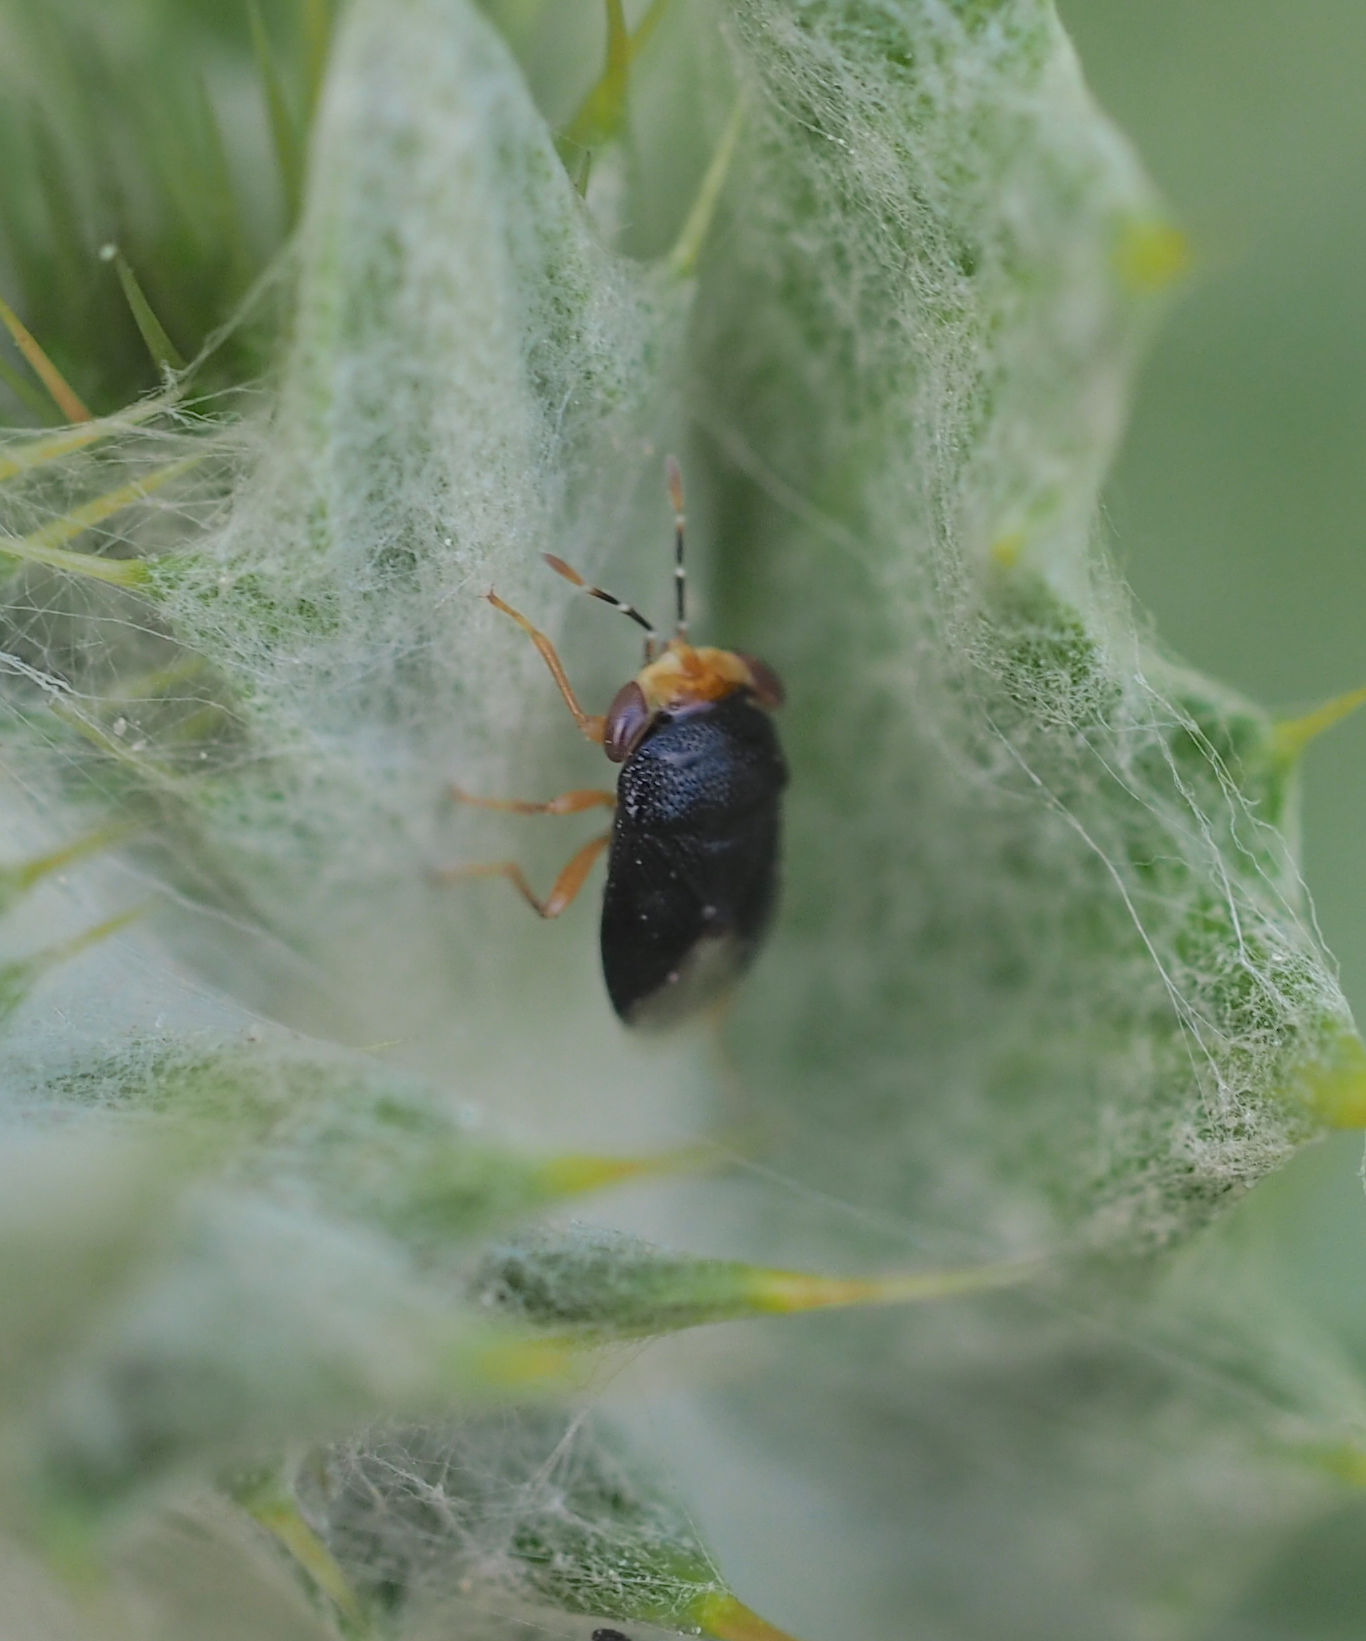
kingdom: Animalia
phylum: Arthropoda
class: Insecta
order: Hemiptera
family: Geocoridae
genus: Geocoris
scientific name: Geocoris erythrocephala
